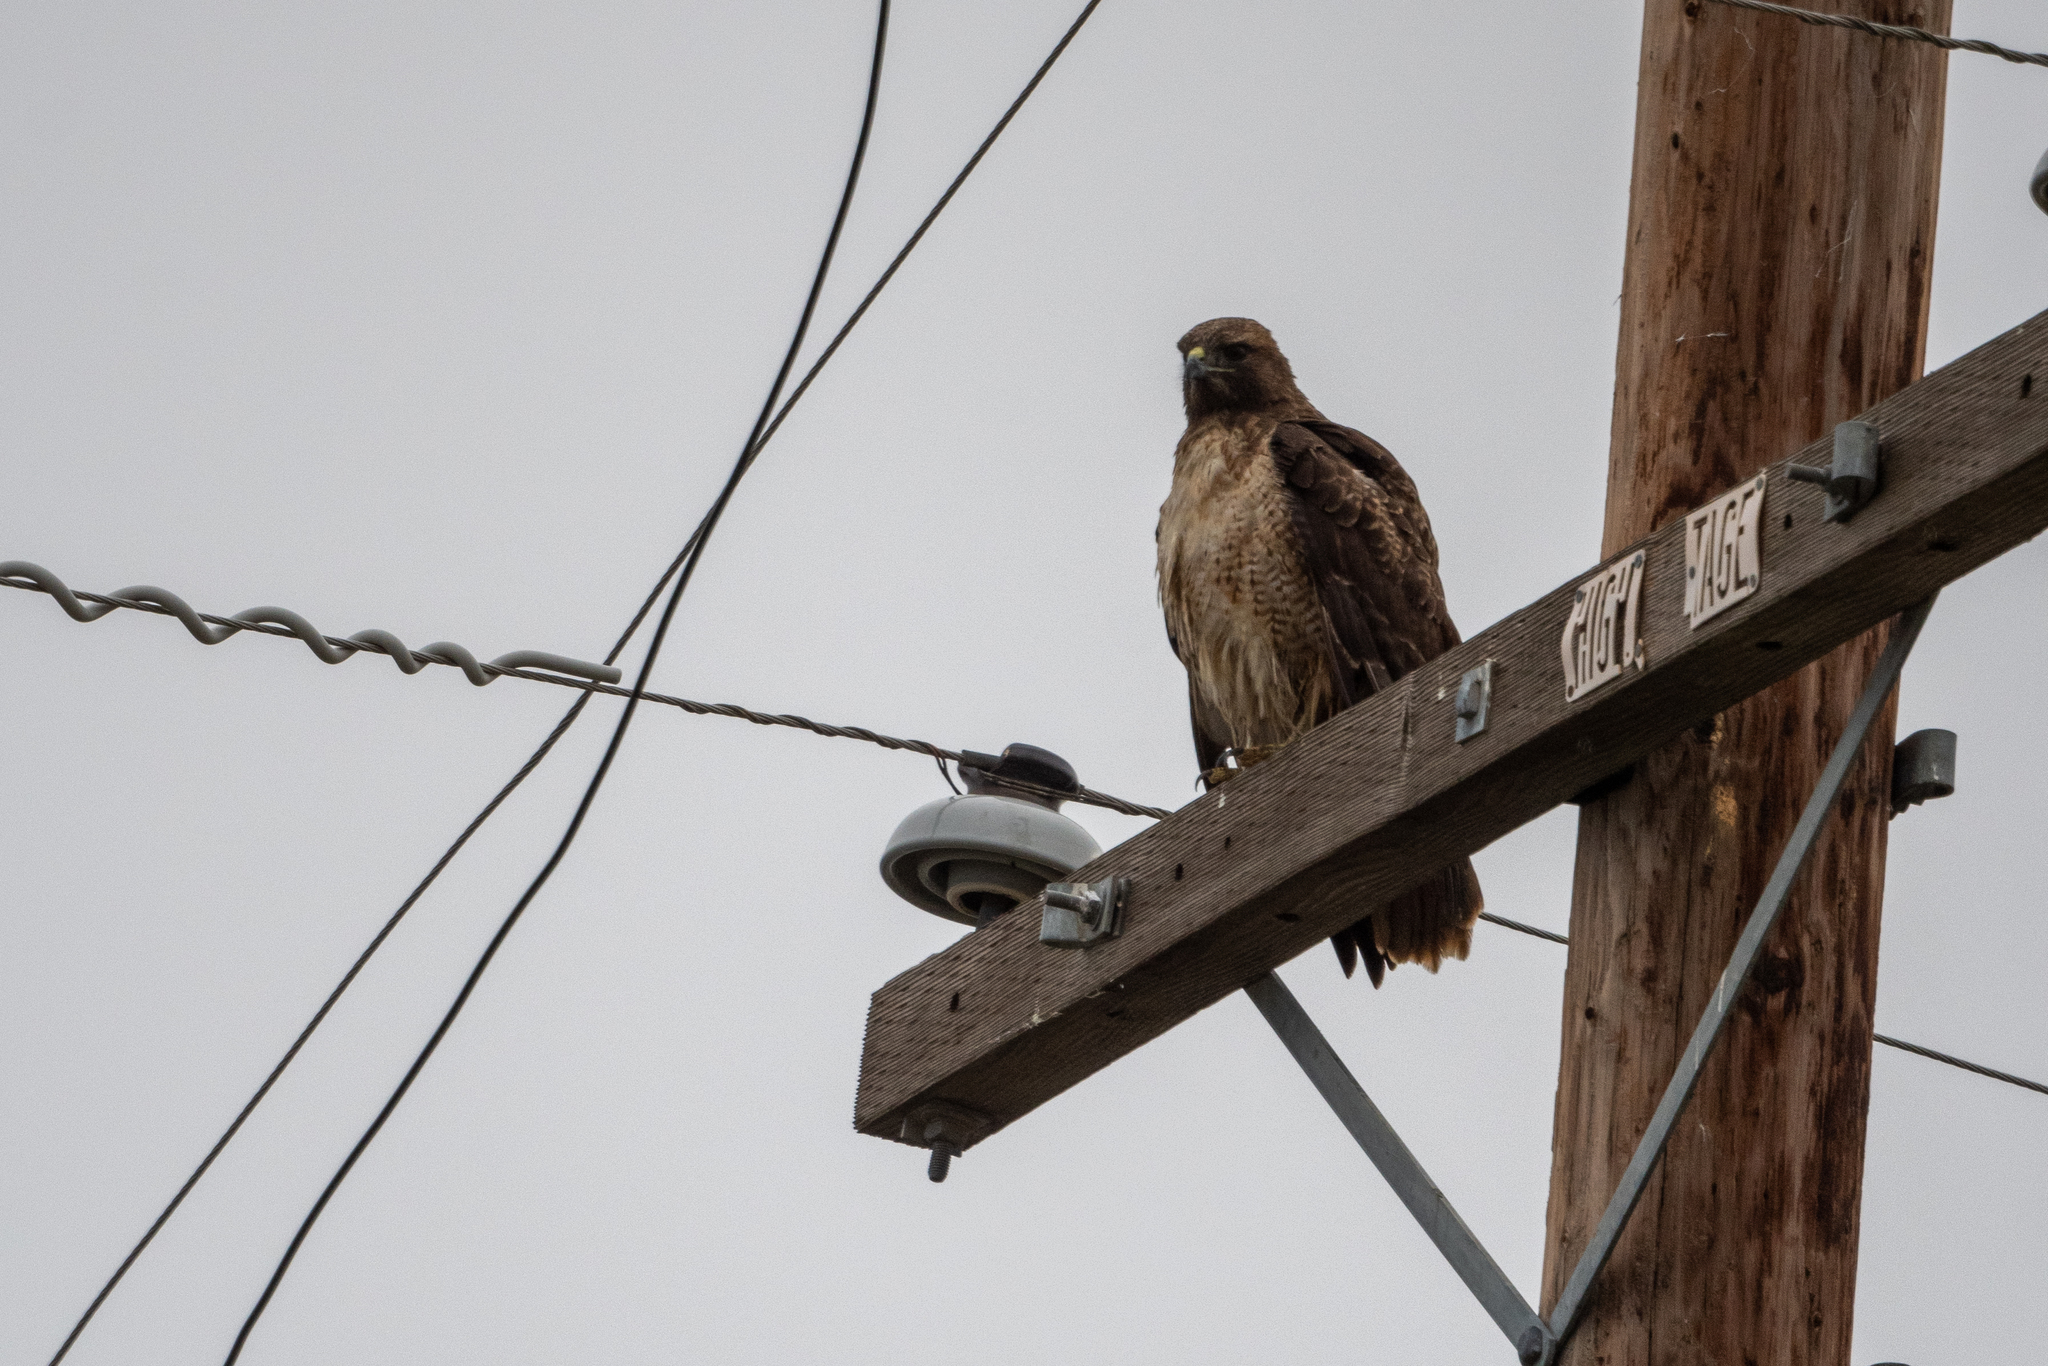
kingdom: Animalia
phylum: Chordata
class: Aves
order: Accipitriformes
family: Accipitridae
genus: Buteo
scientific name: Buteo jamaicensis
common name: Red-tailed hawk
